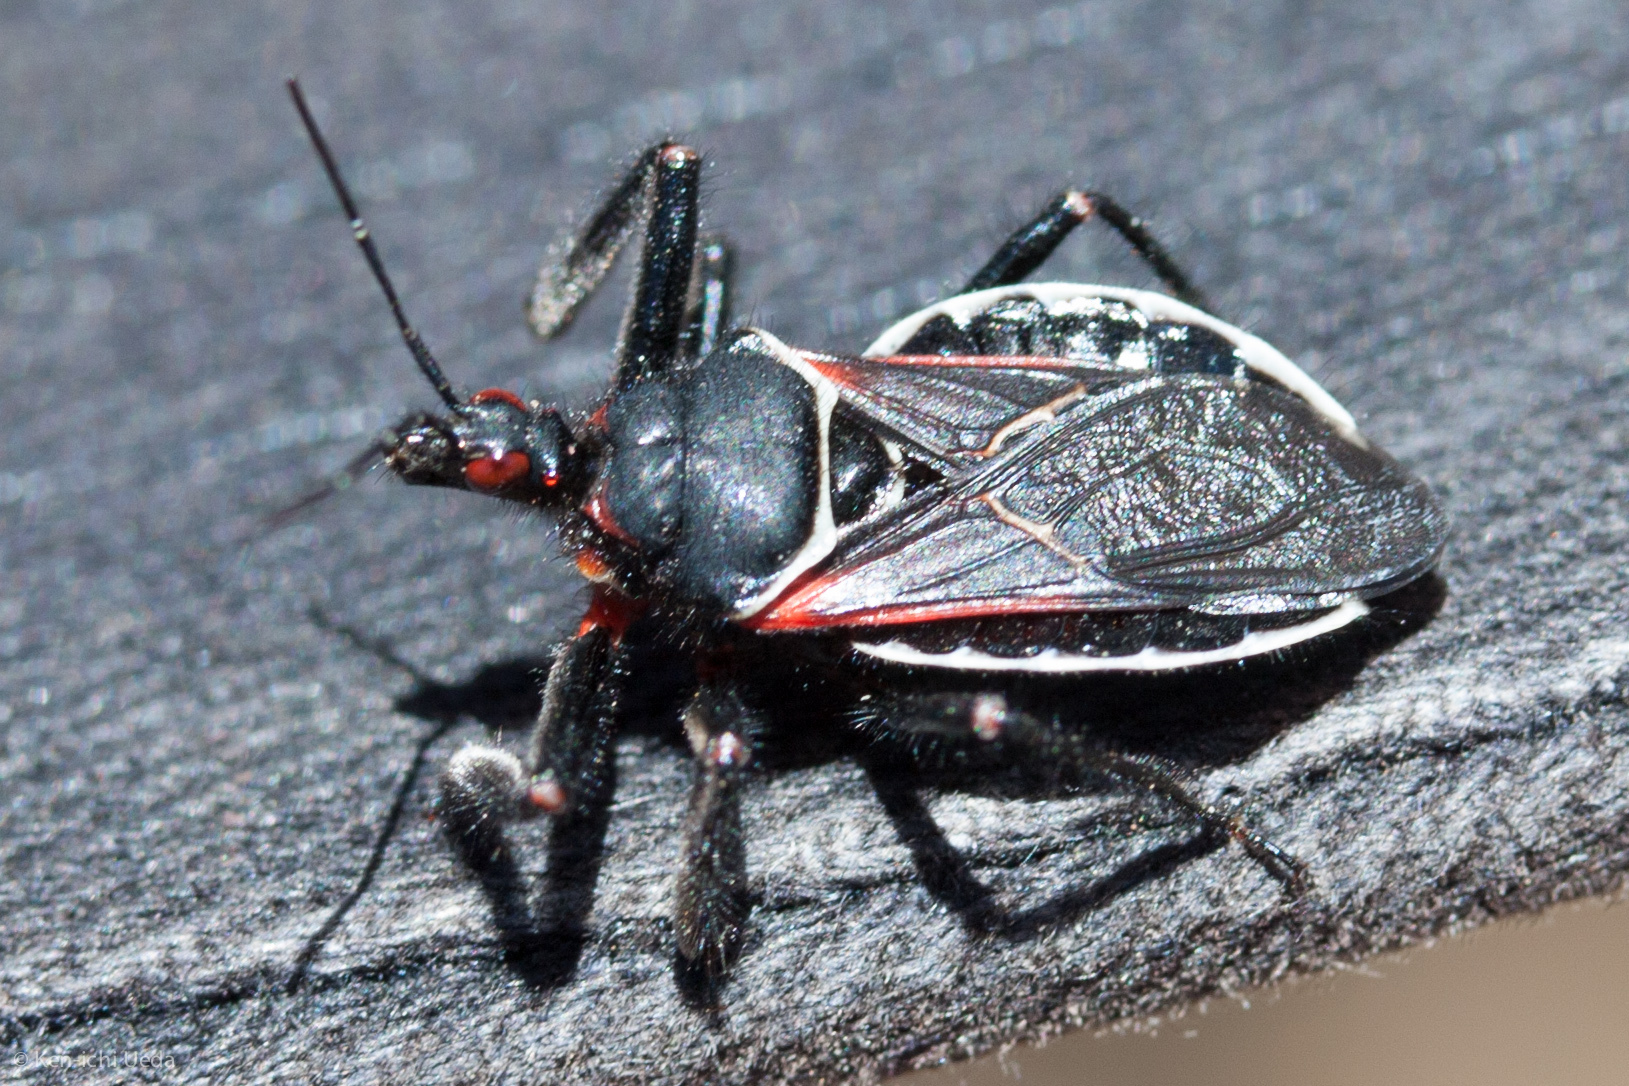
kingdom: Animalia
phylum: Arthropoda
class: Insecta
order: Hemiptera
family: Reduviidae
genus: Apiomerus
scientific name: Apiomerus californicus
